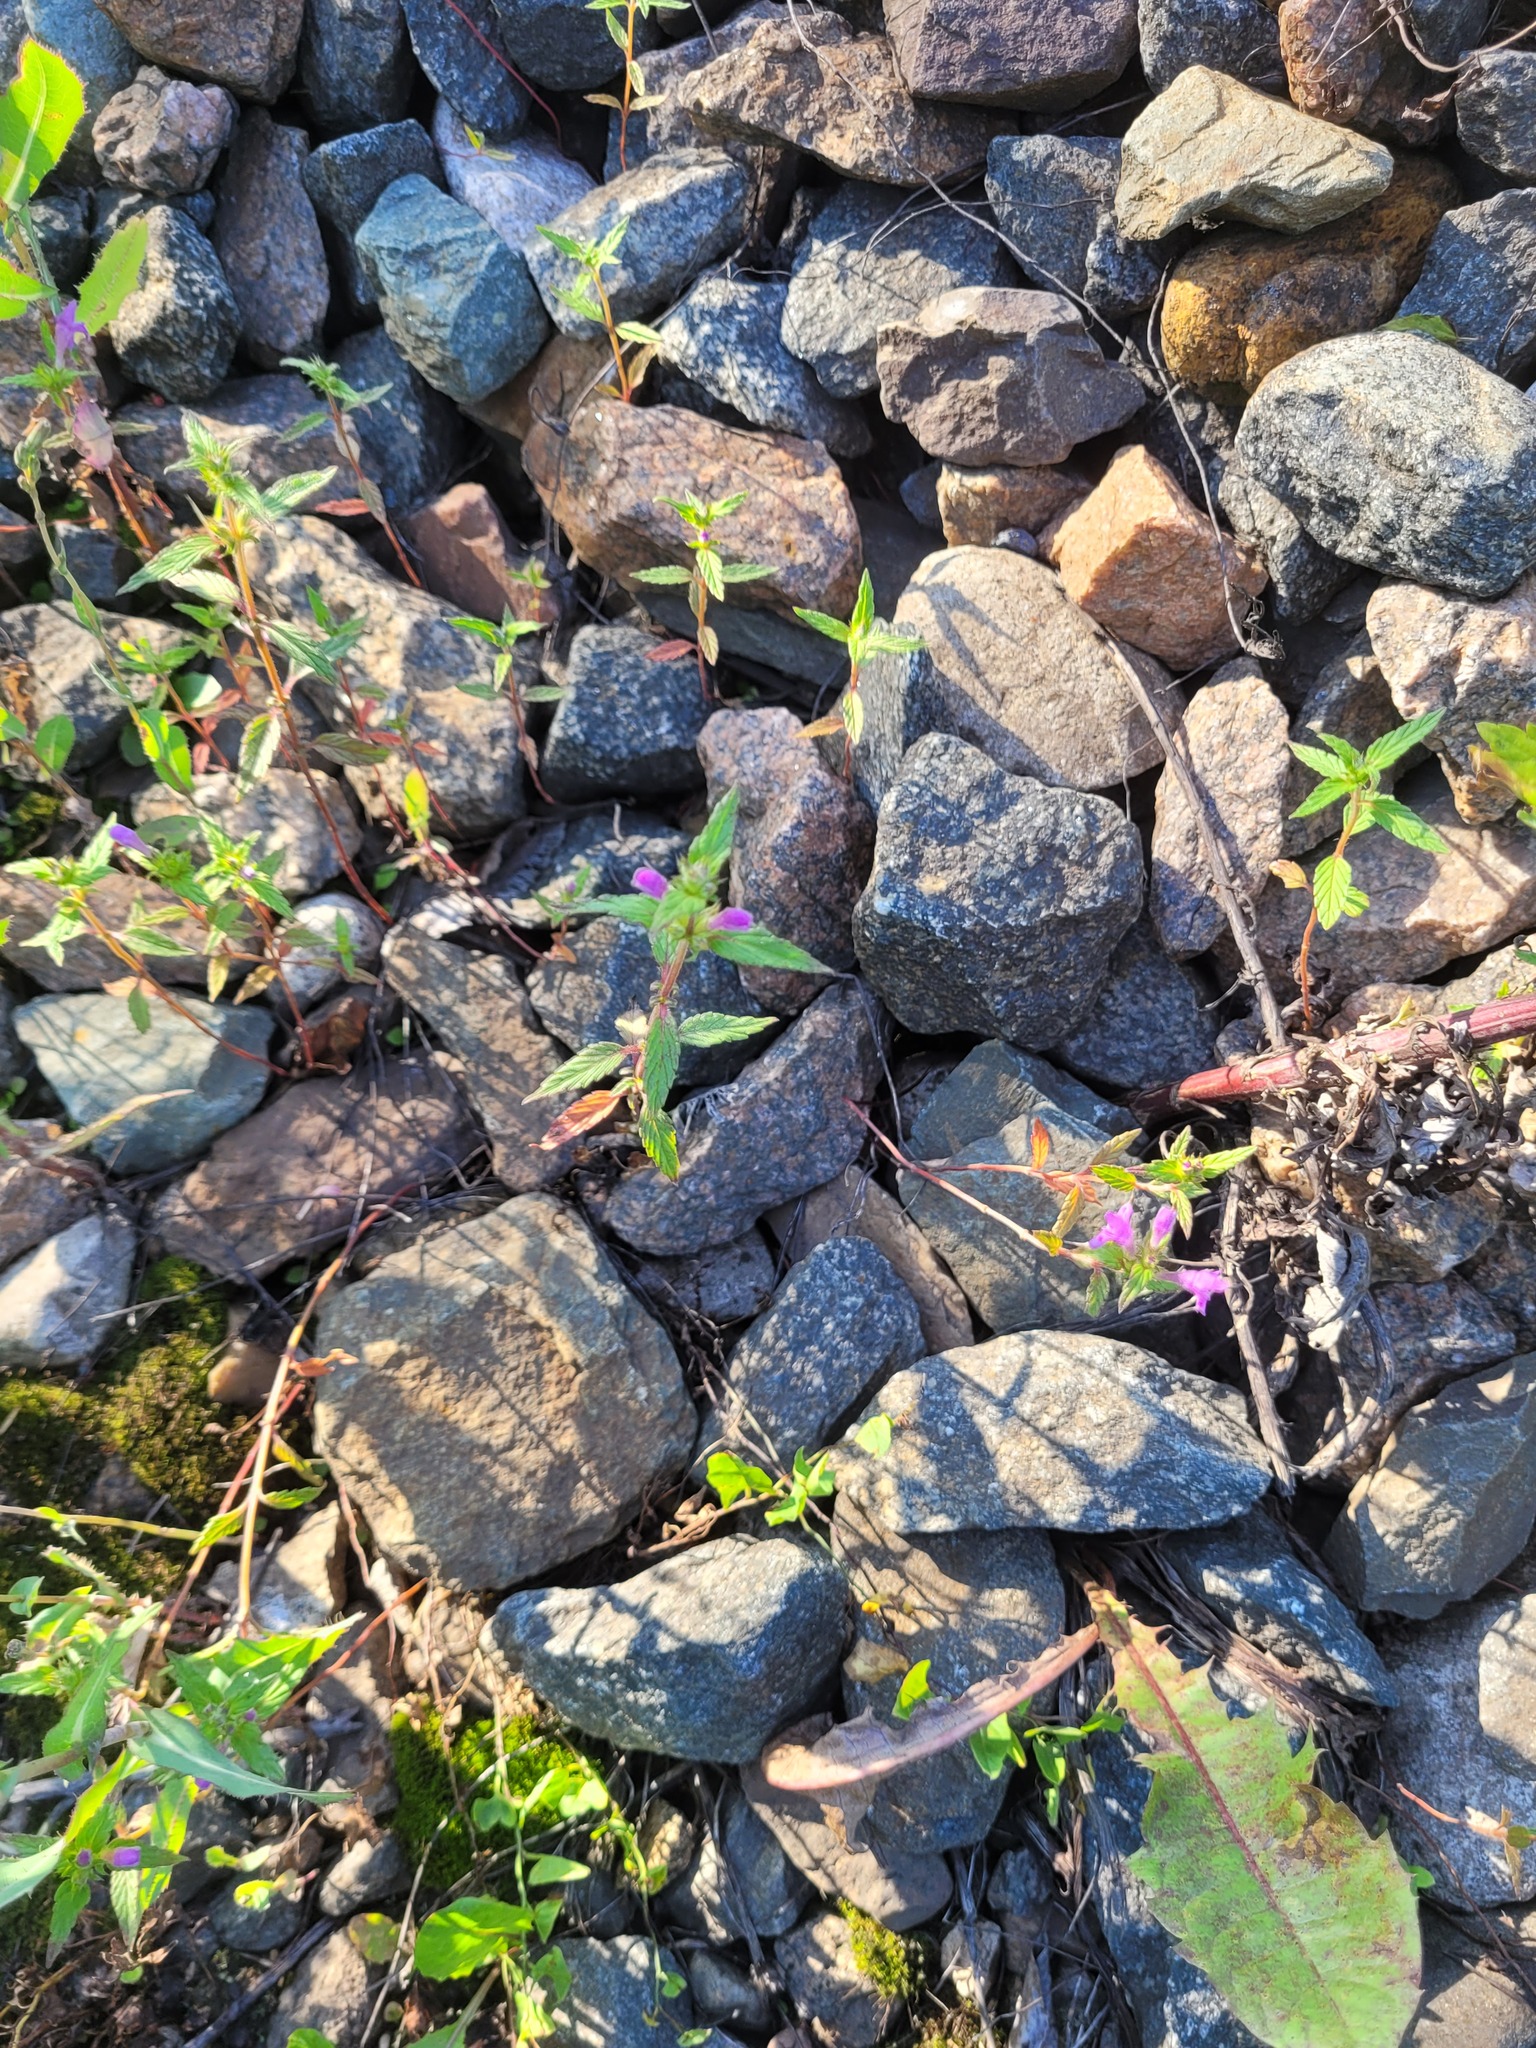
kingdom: Plantae
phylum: Tracheophyta
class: Magnoliopsida
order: Lamiales
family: Lamiaceae
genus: Galeopsis
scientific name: Galeopsis ladanum
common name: Broad-leaved hemp-nettle
